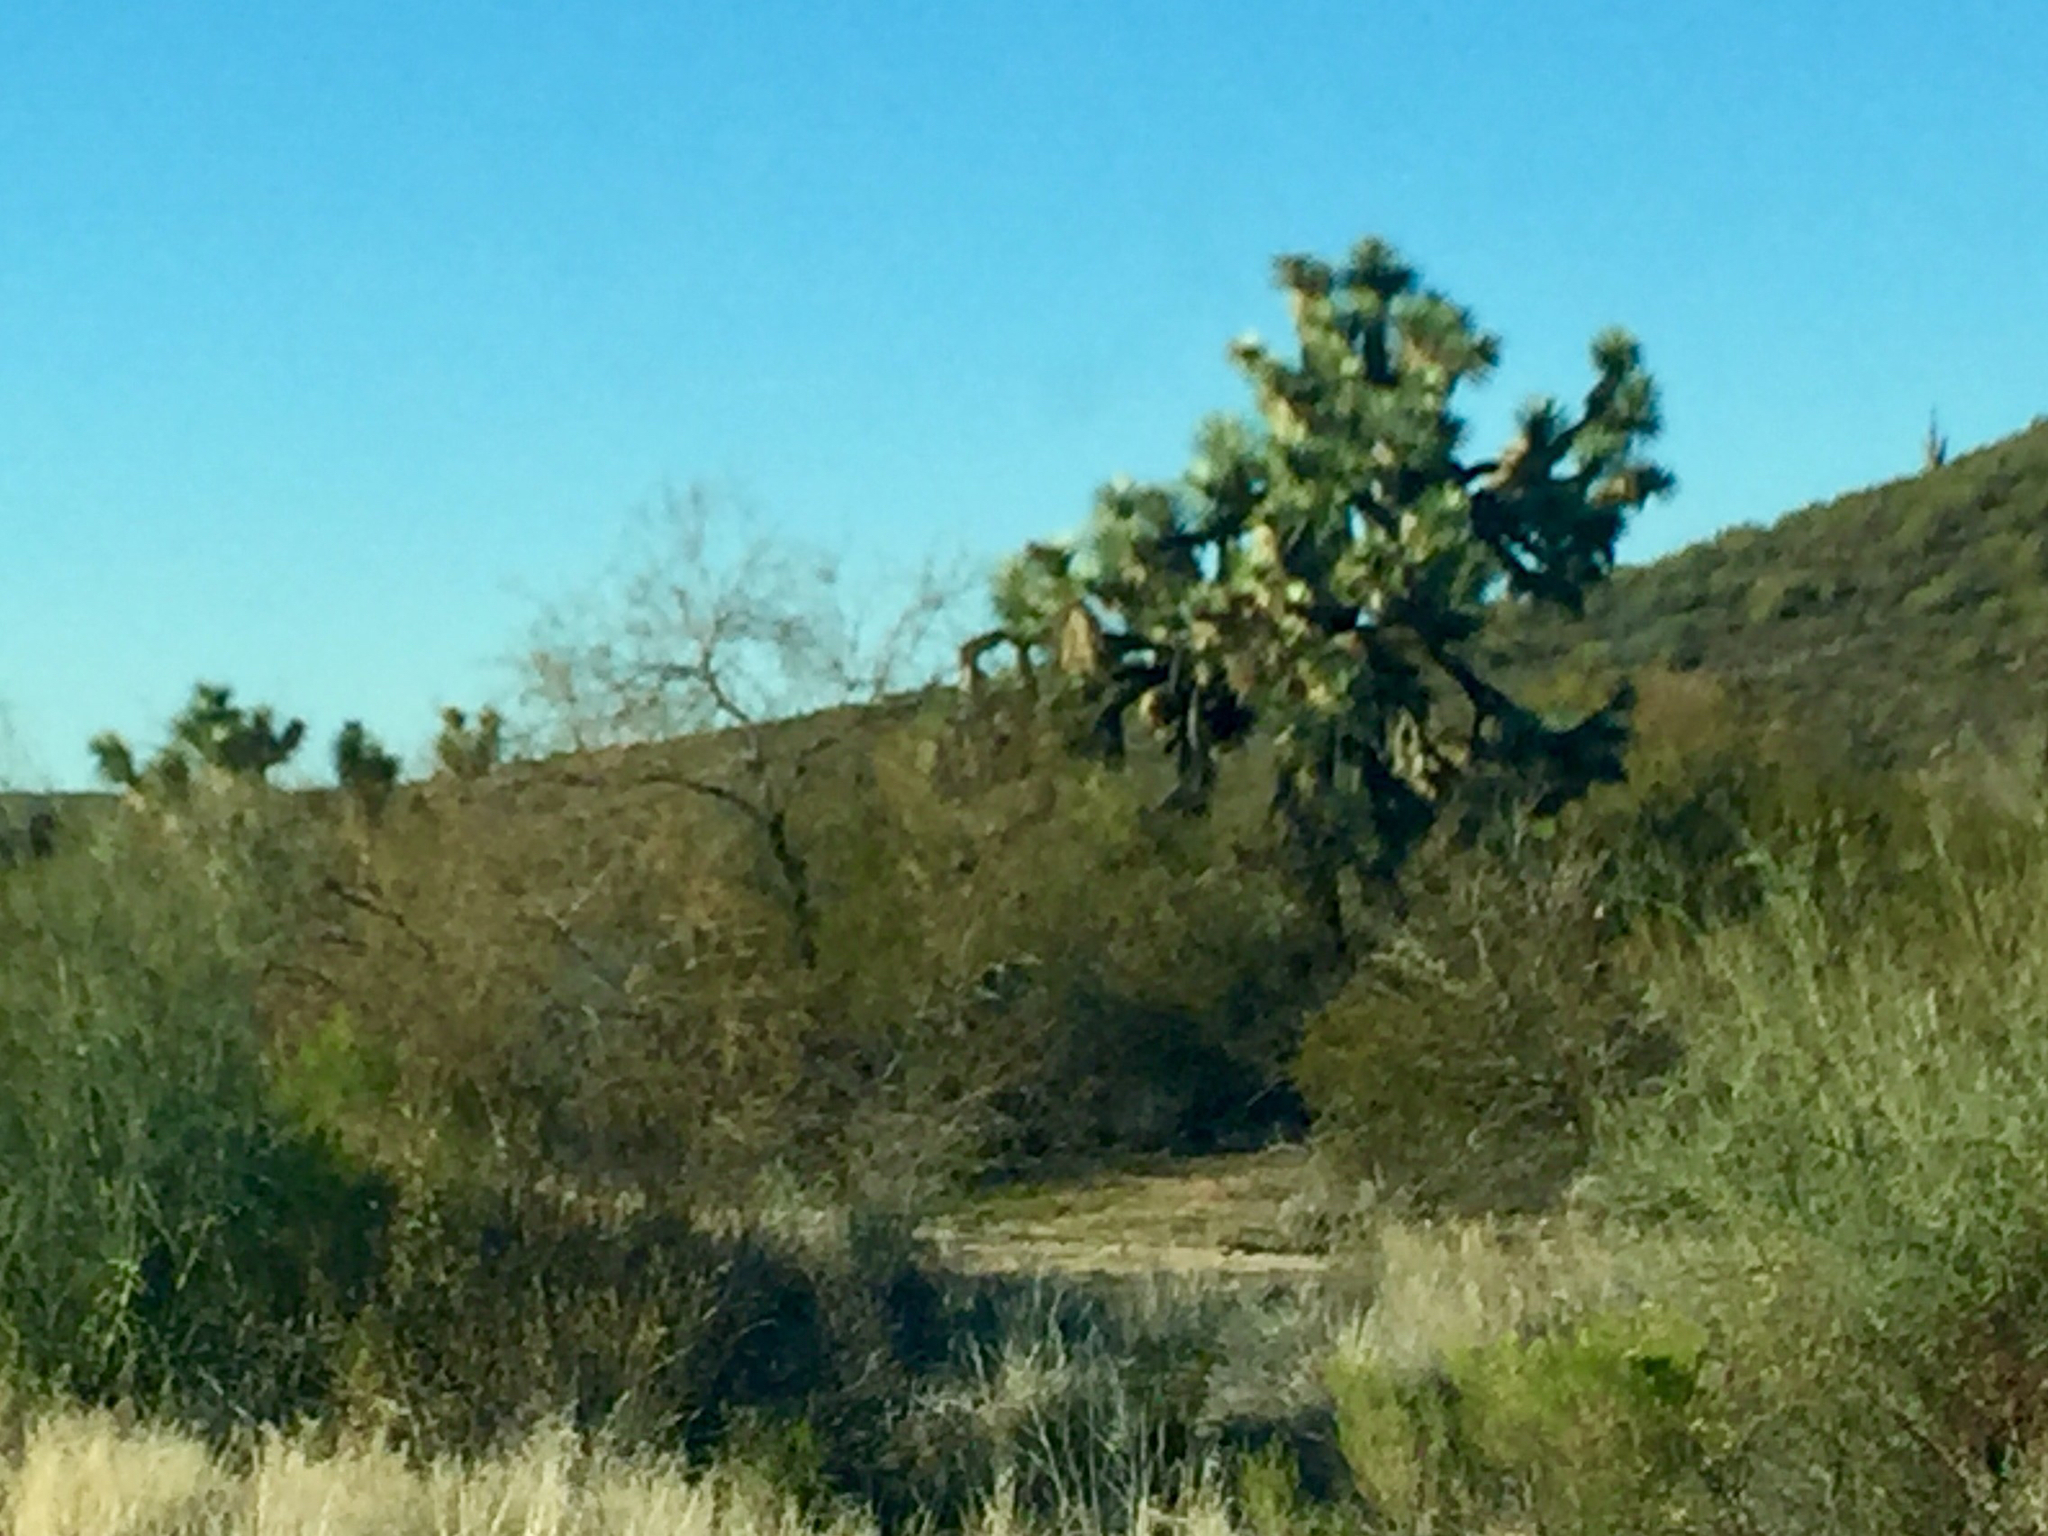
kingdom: Plantae
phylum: Tracheophyta
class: Liliopsida
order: Asparagales
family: Asparagaceae
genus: Yucca
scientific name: Yucca brevifolia
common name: Joshua tree
